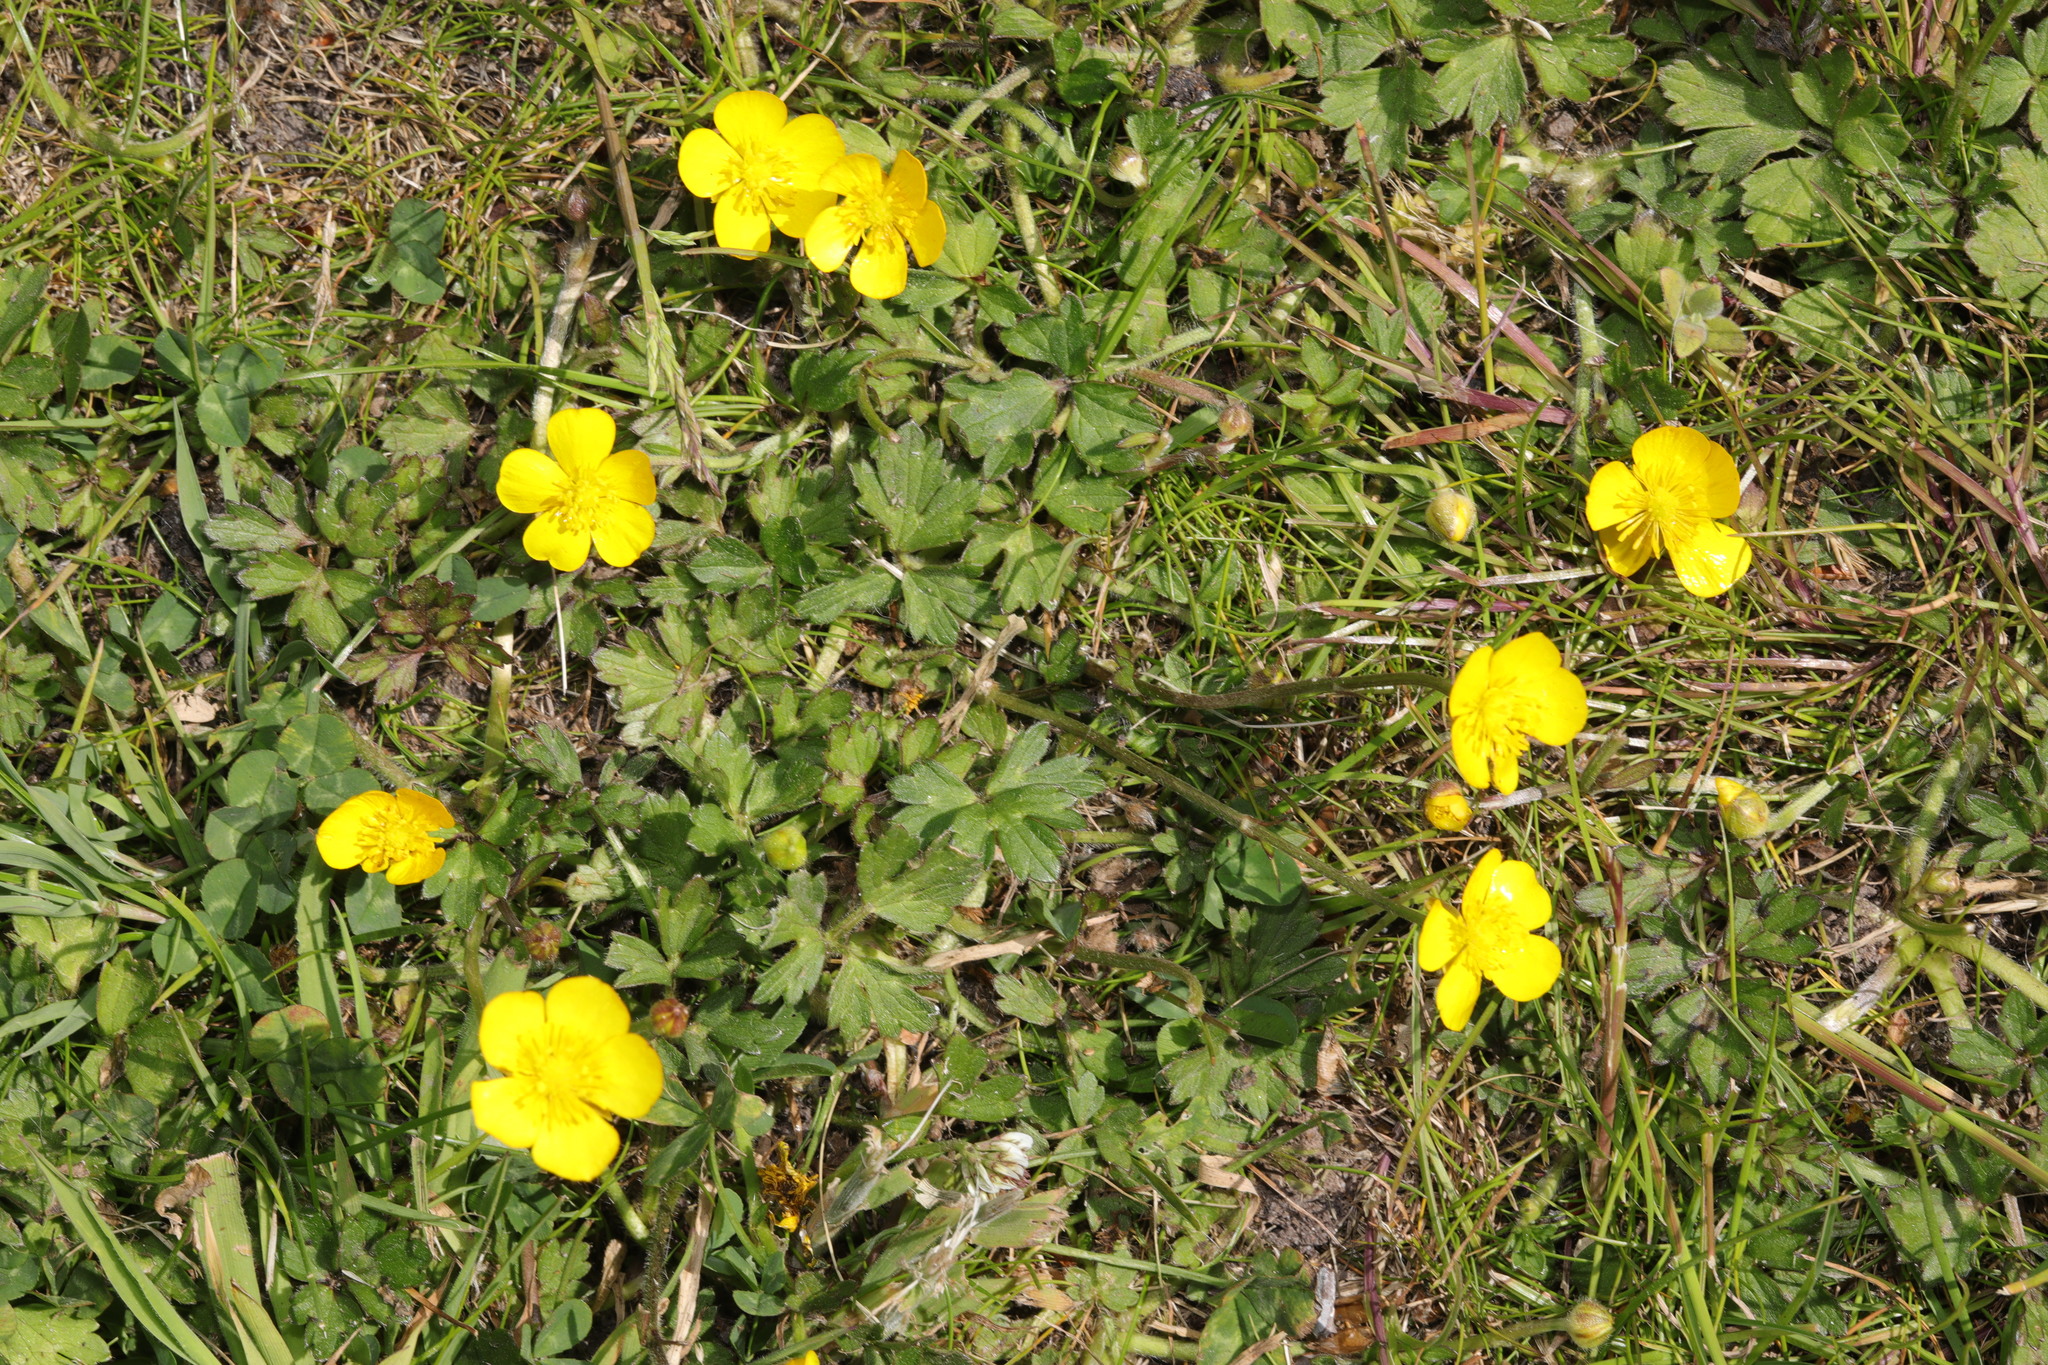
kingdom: Plantae
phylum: Tracheophyta
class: Magnoliopsida
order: Ranunculales
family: Ranunculaceae
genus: Ranunculus
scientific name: Ranunculus repens
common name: Creeping buttercup
